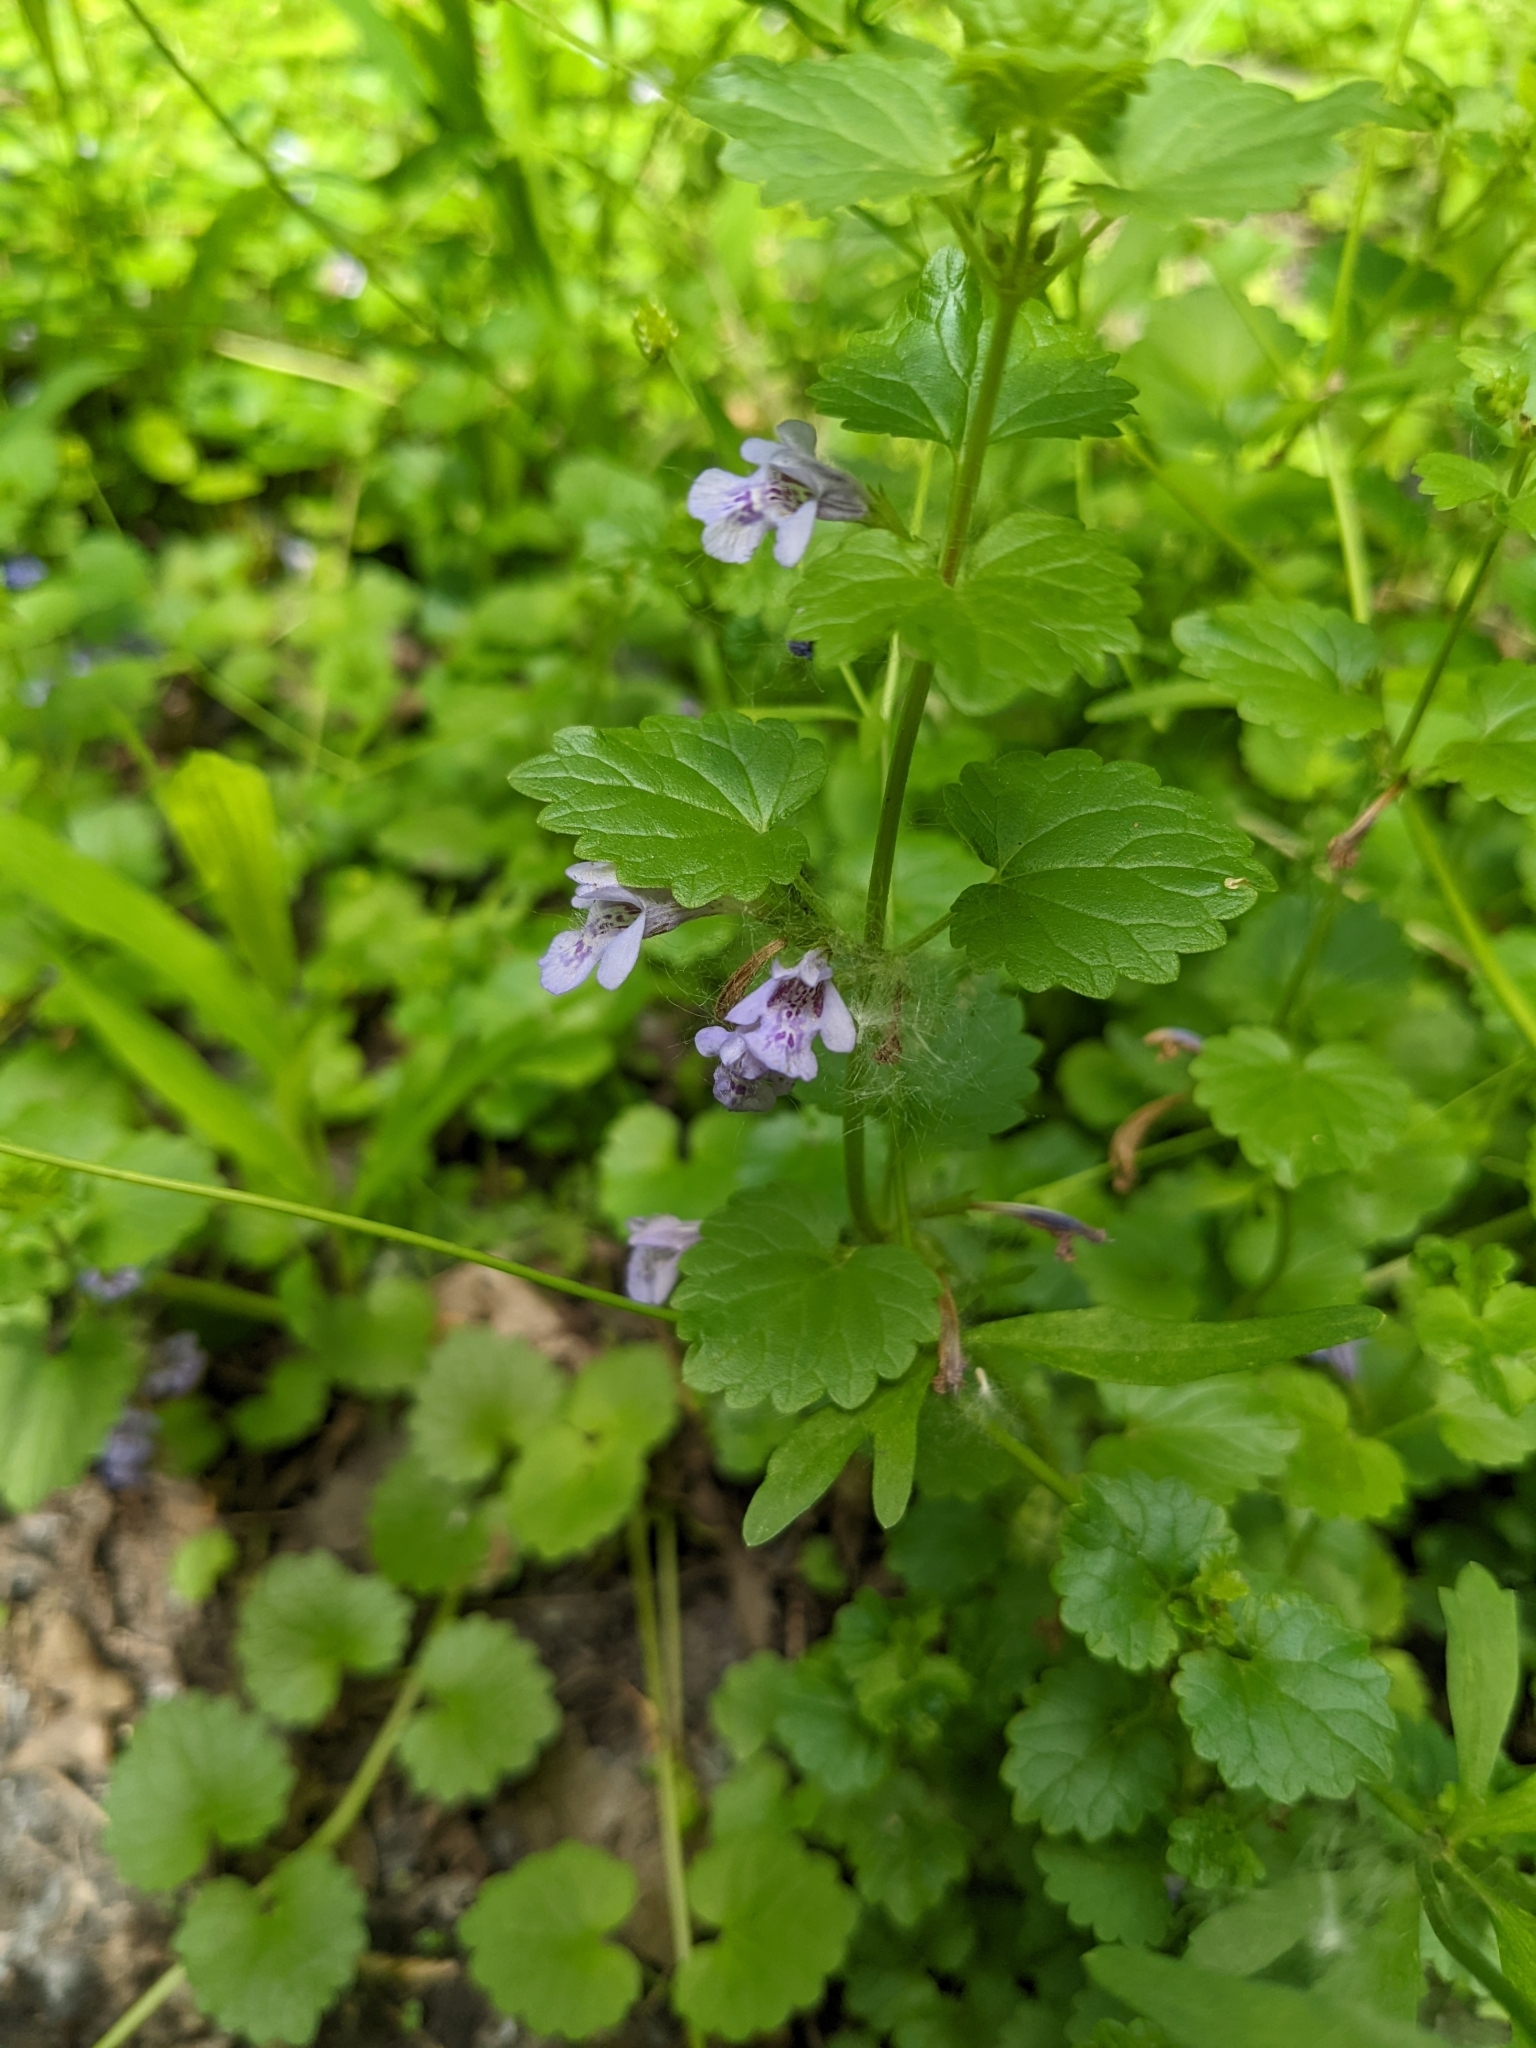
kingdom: Plantae
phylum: Tracheophyta
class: Magnoliopsida
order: Lamiales
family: Lamiaceae
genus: Glechoma
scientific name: Glechoma hederacea
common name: Ground ivy
